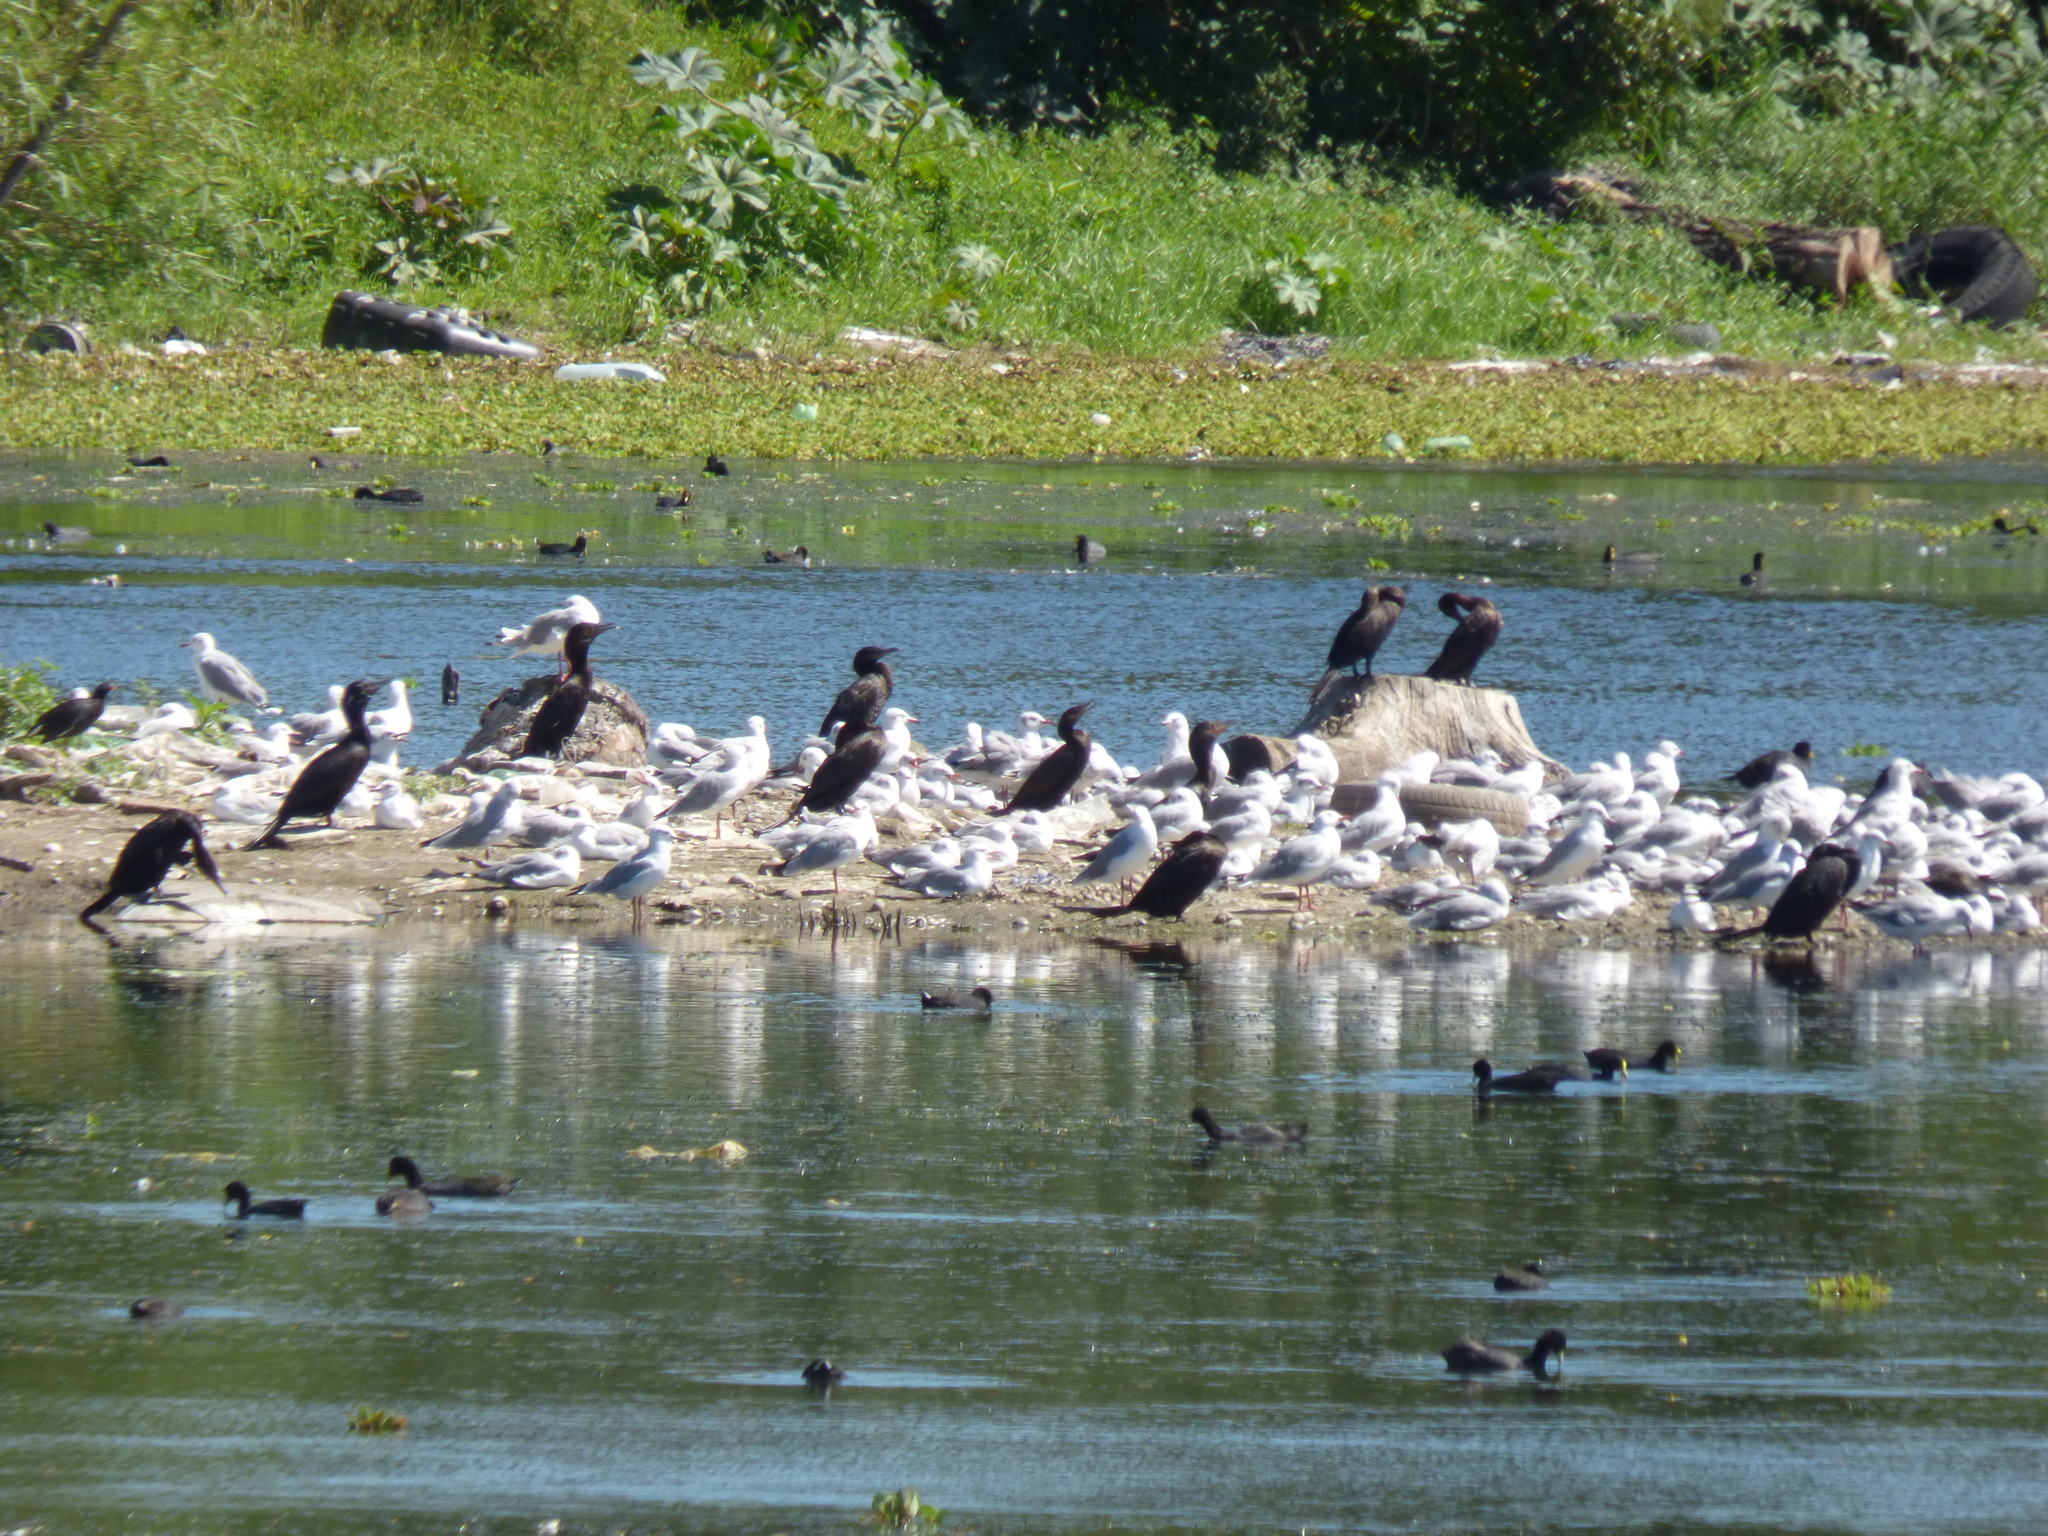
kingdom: Animalia
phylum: Chordata
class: Aves
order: Charadriiformes
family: Laridae
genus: Chroicocephalus
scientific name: Chroicocephalus cirrocephalus
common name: Grey-headed gull
